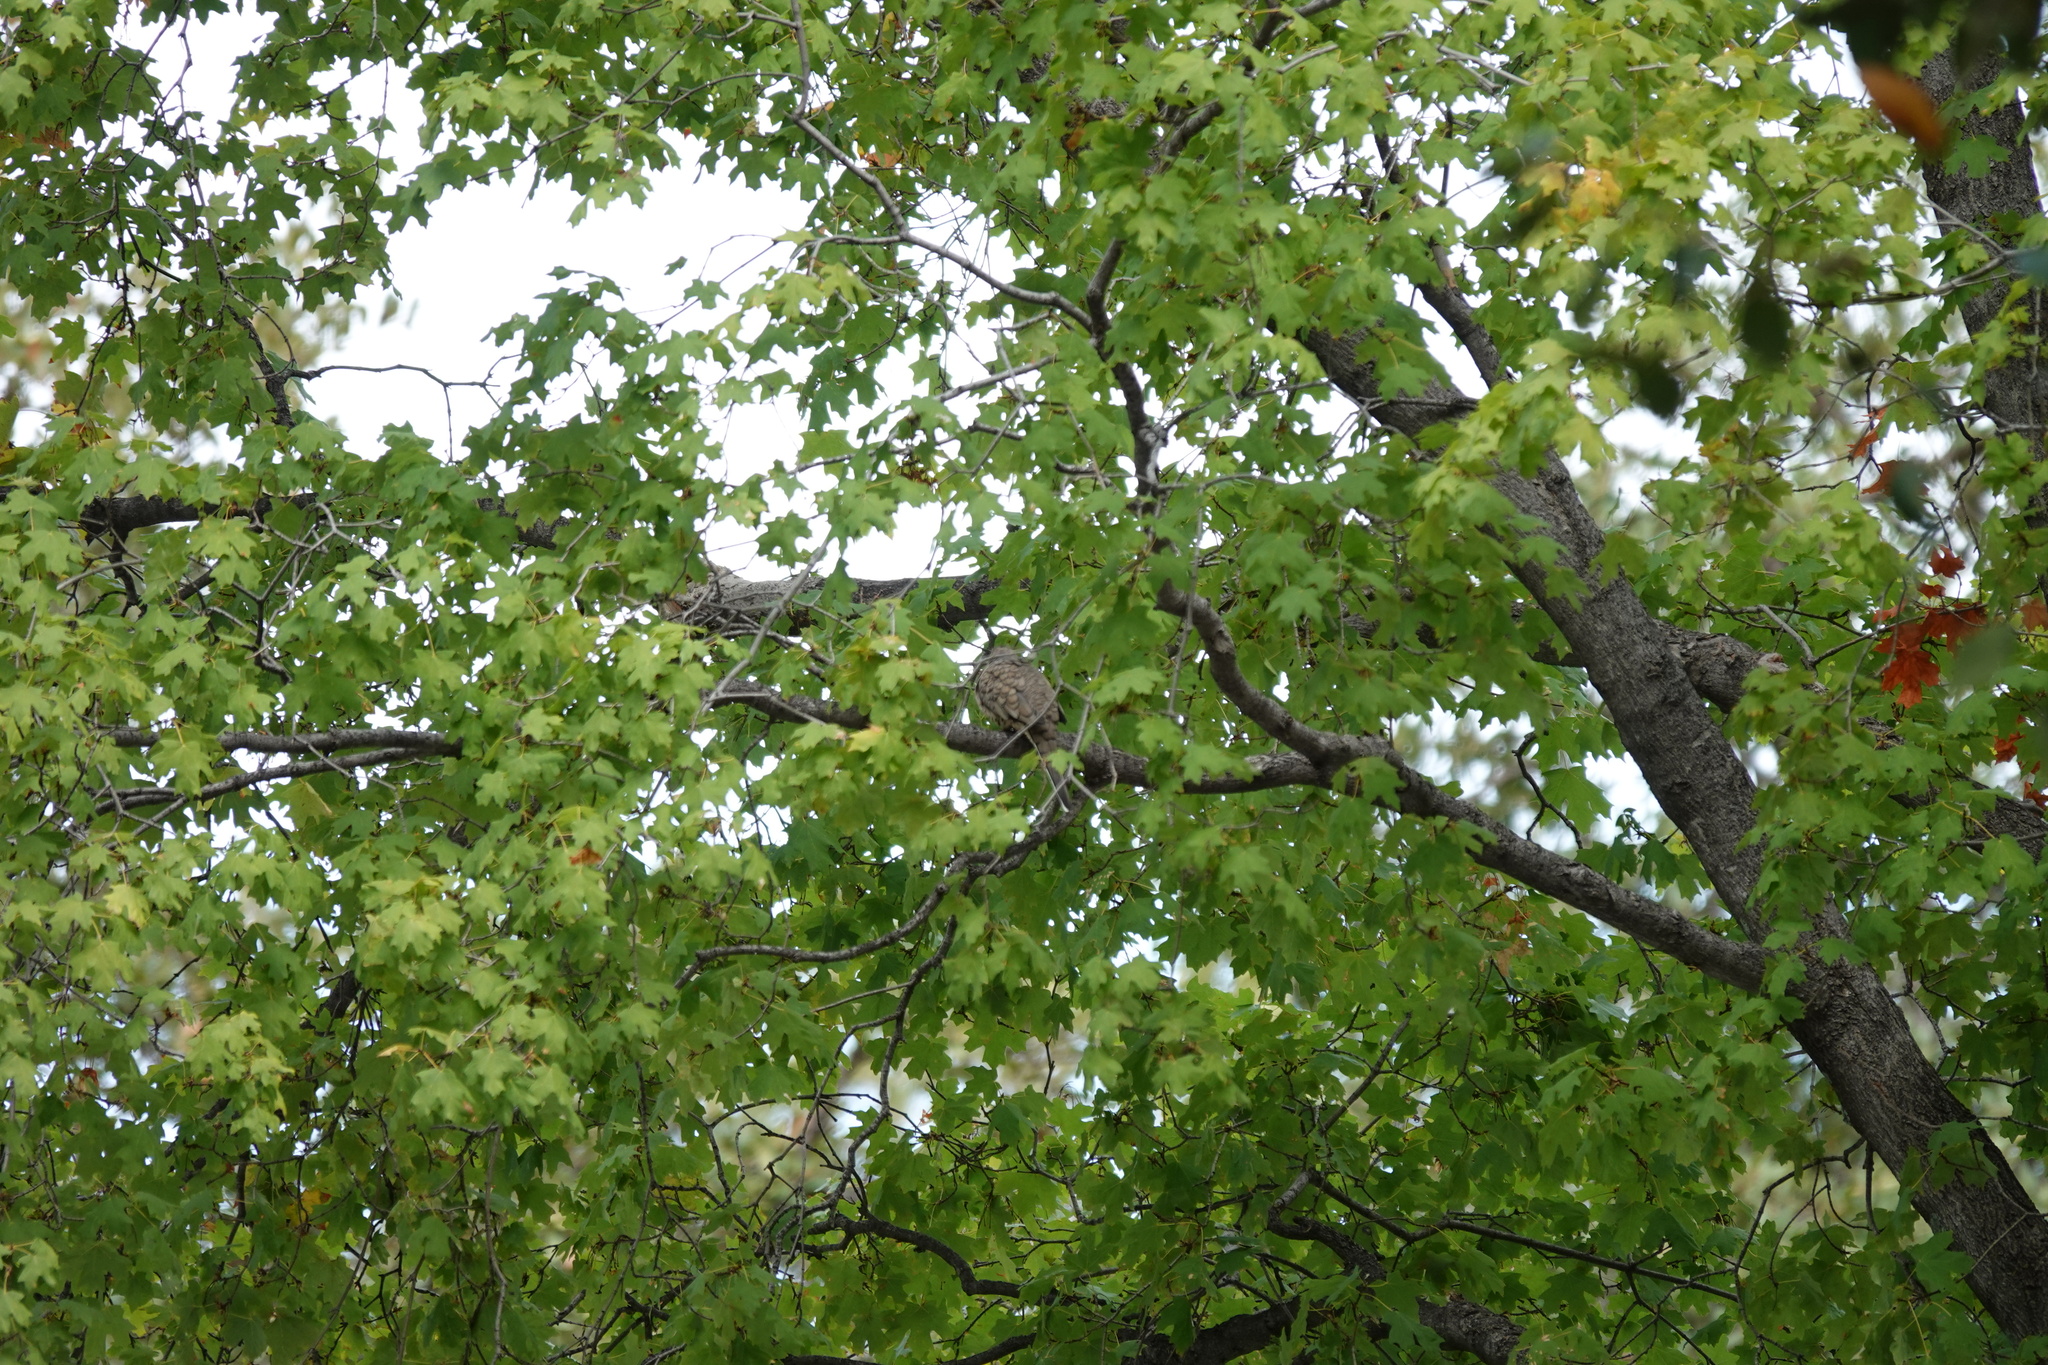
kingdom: Animalia
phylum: Chordata
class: Aves
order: Columbiformes
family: Columbidae
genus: Columbina
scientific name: Columbina inca
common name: Inca dove
